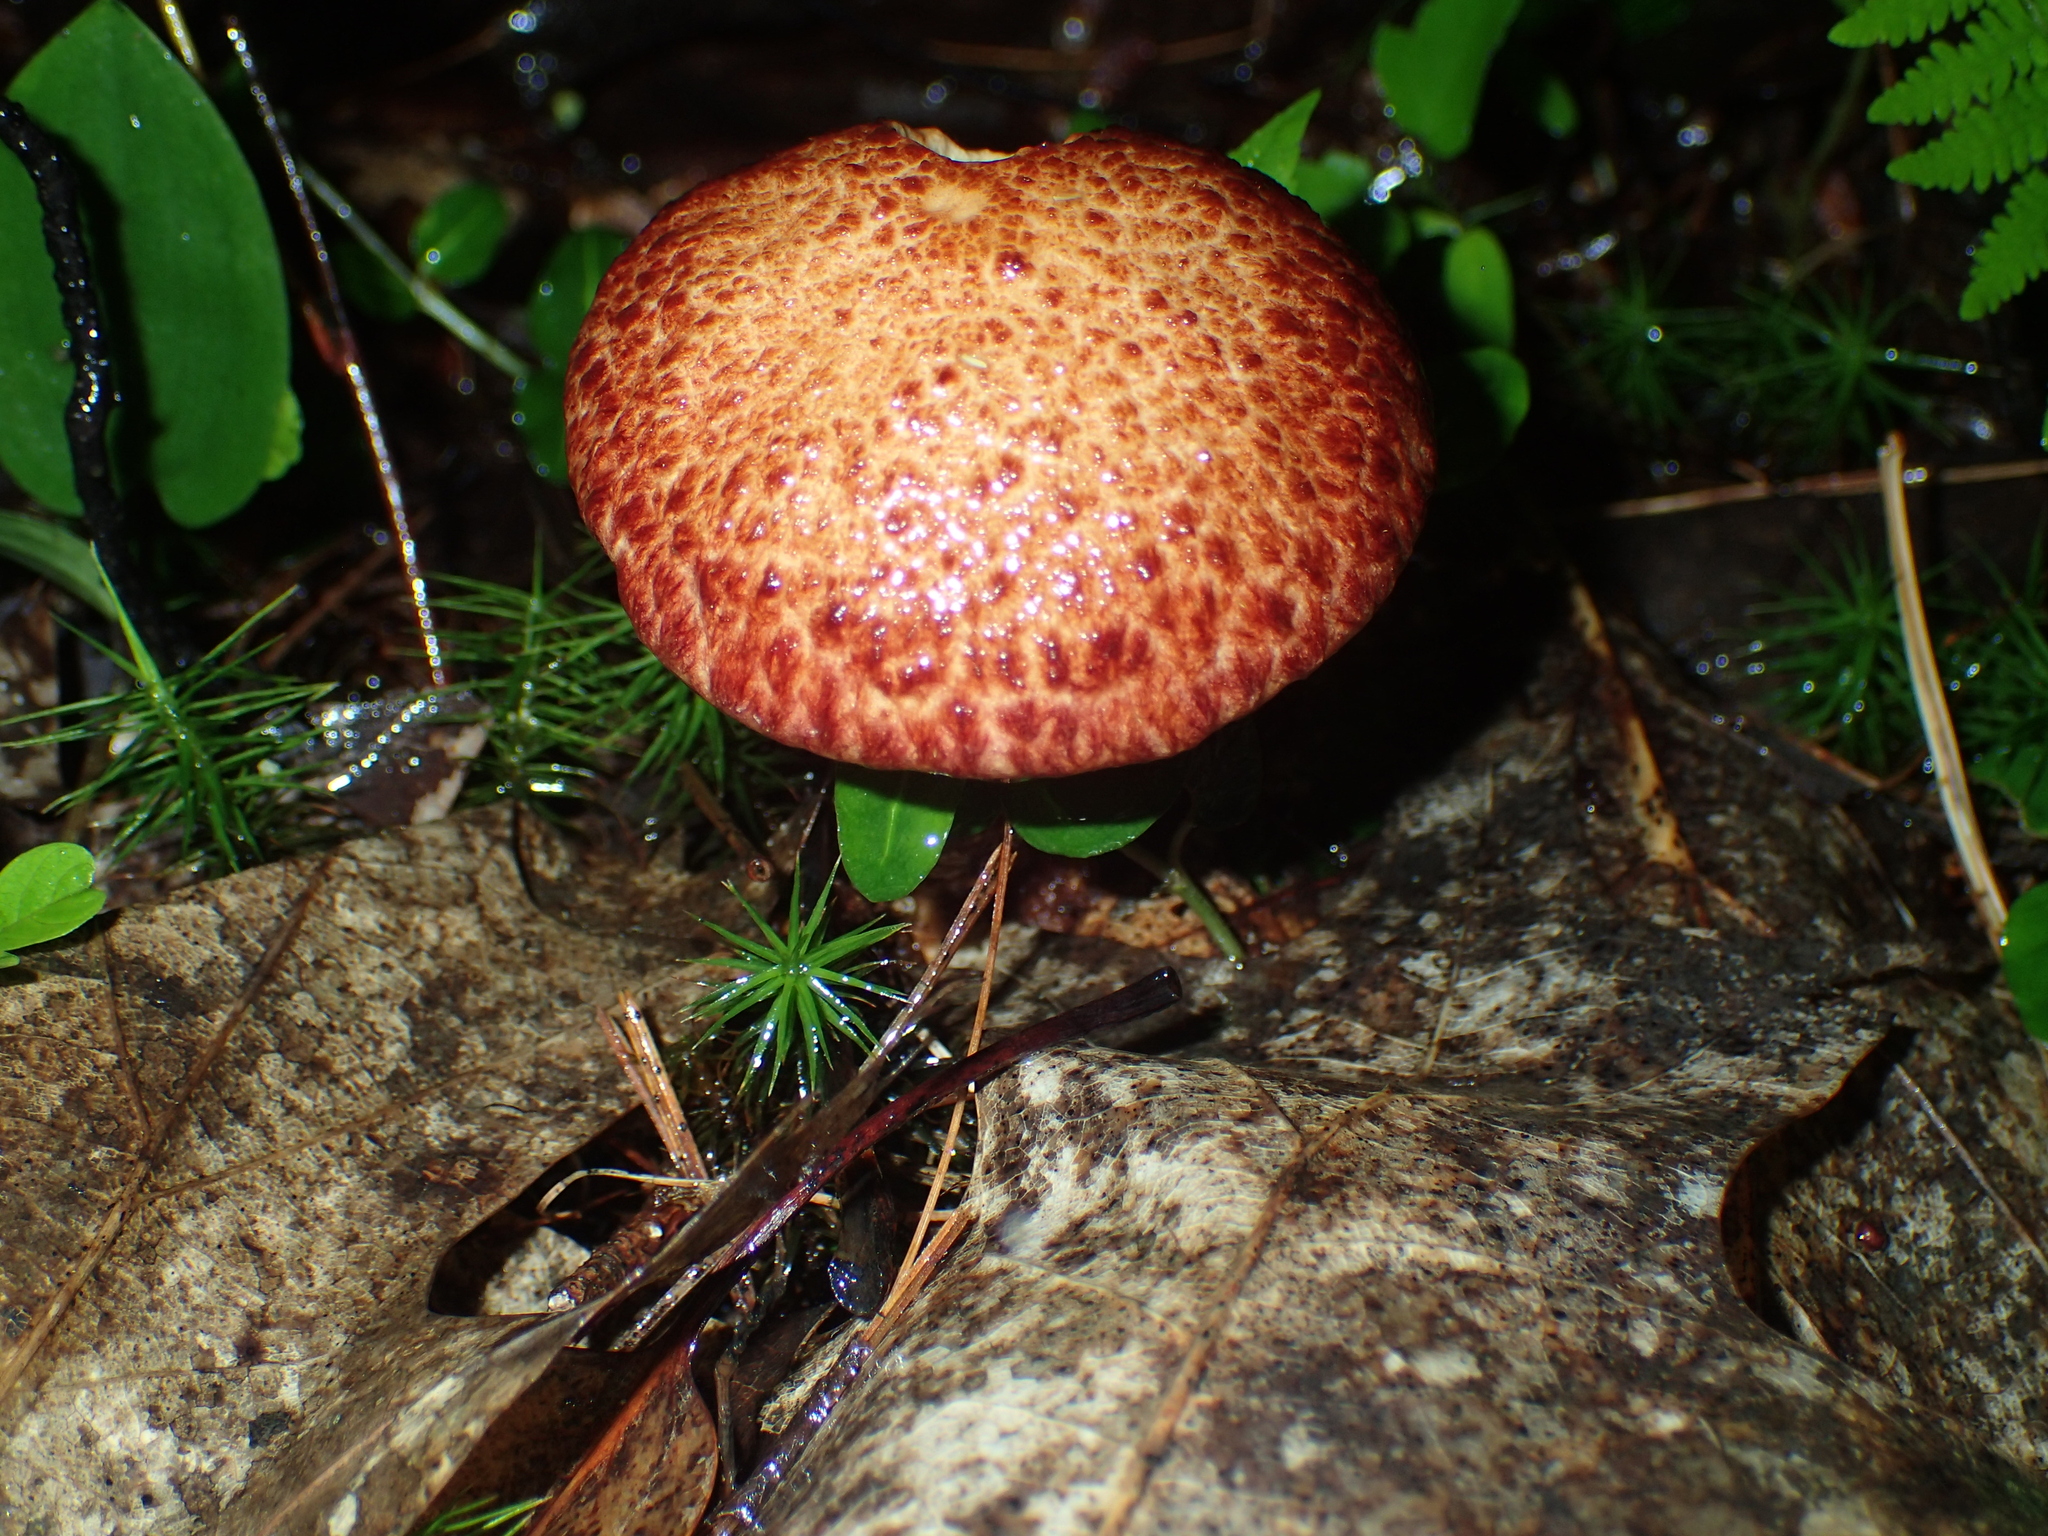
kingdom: Fungi
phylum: Basidiomycota
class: Agaricomycetes
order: Boletales
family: Suillaceae
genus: Suillus
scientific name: Suillus spraguei
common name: Painted suillus
